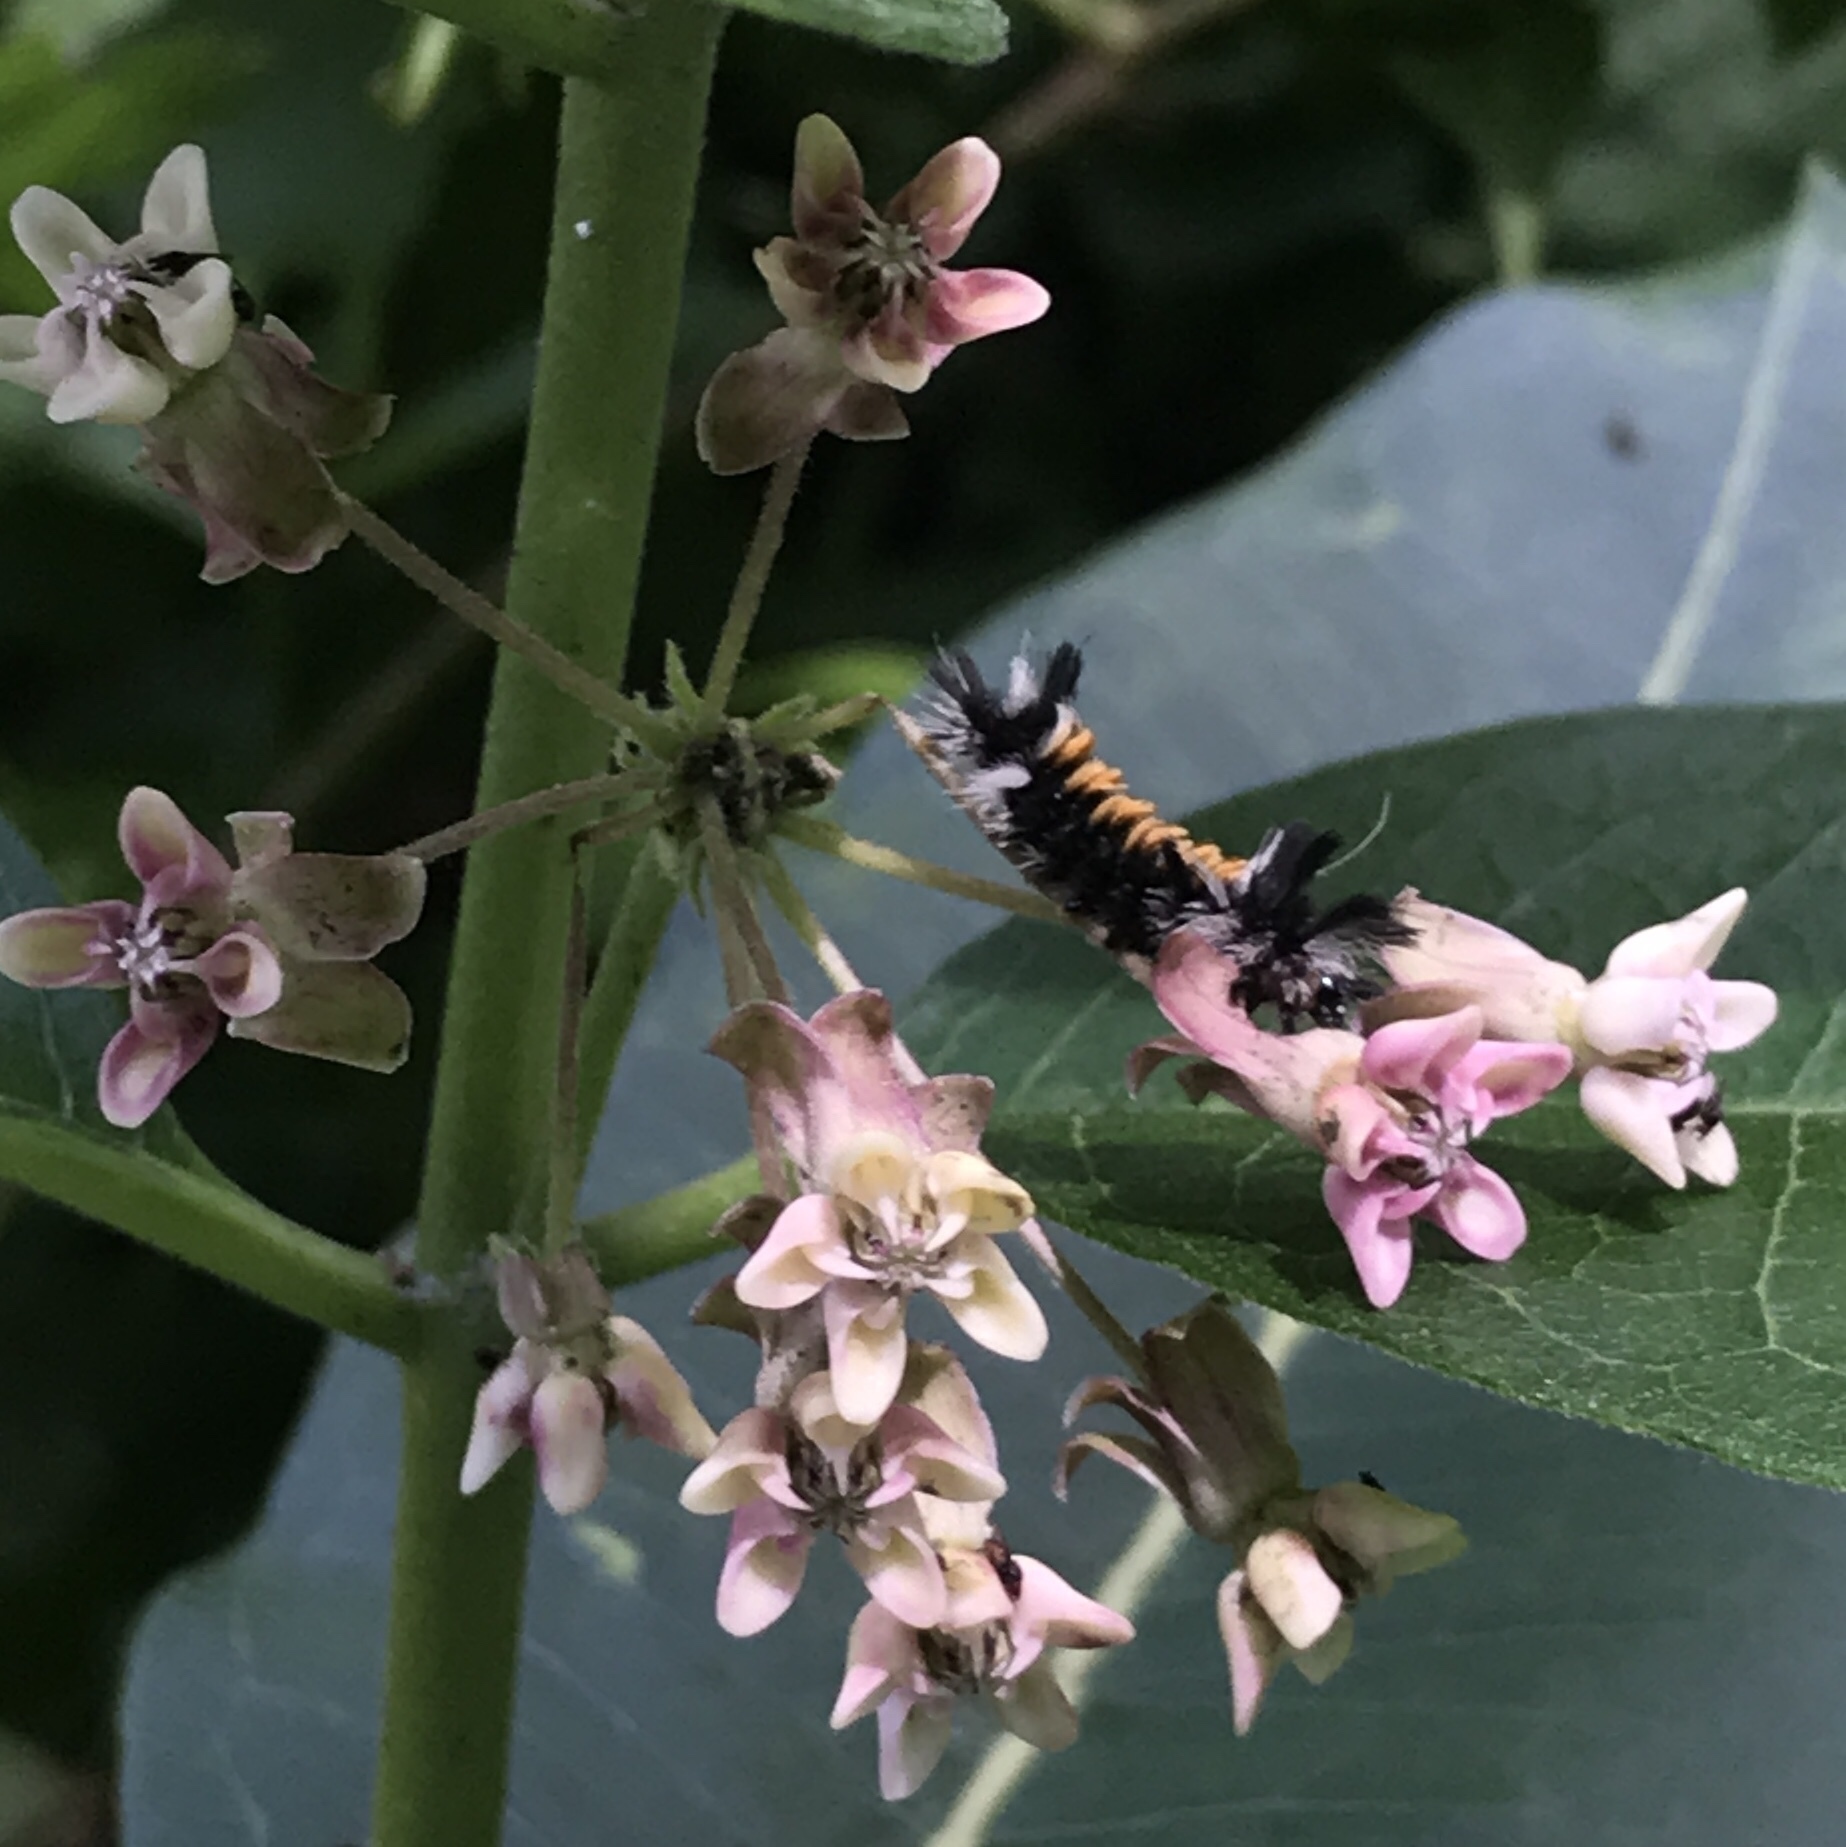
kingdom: Animalia
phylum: Arthropoda
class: Insecta
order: Lepidoptera
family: Erebidae
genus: Euchaetes
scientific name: Euchaetes egle
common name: Milkweed tussock moth
